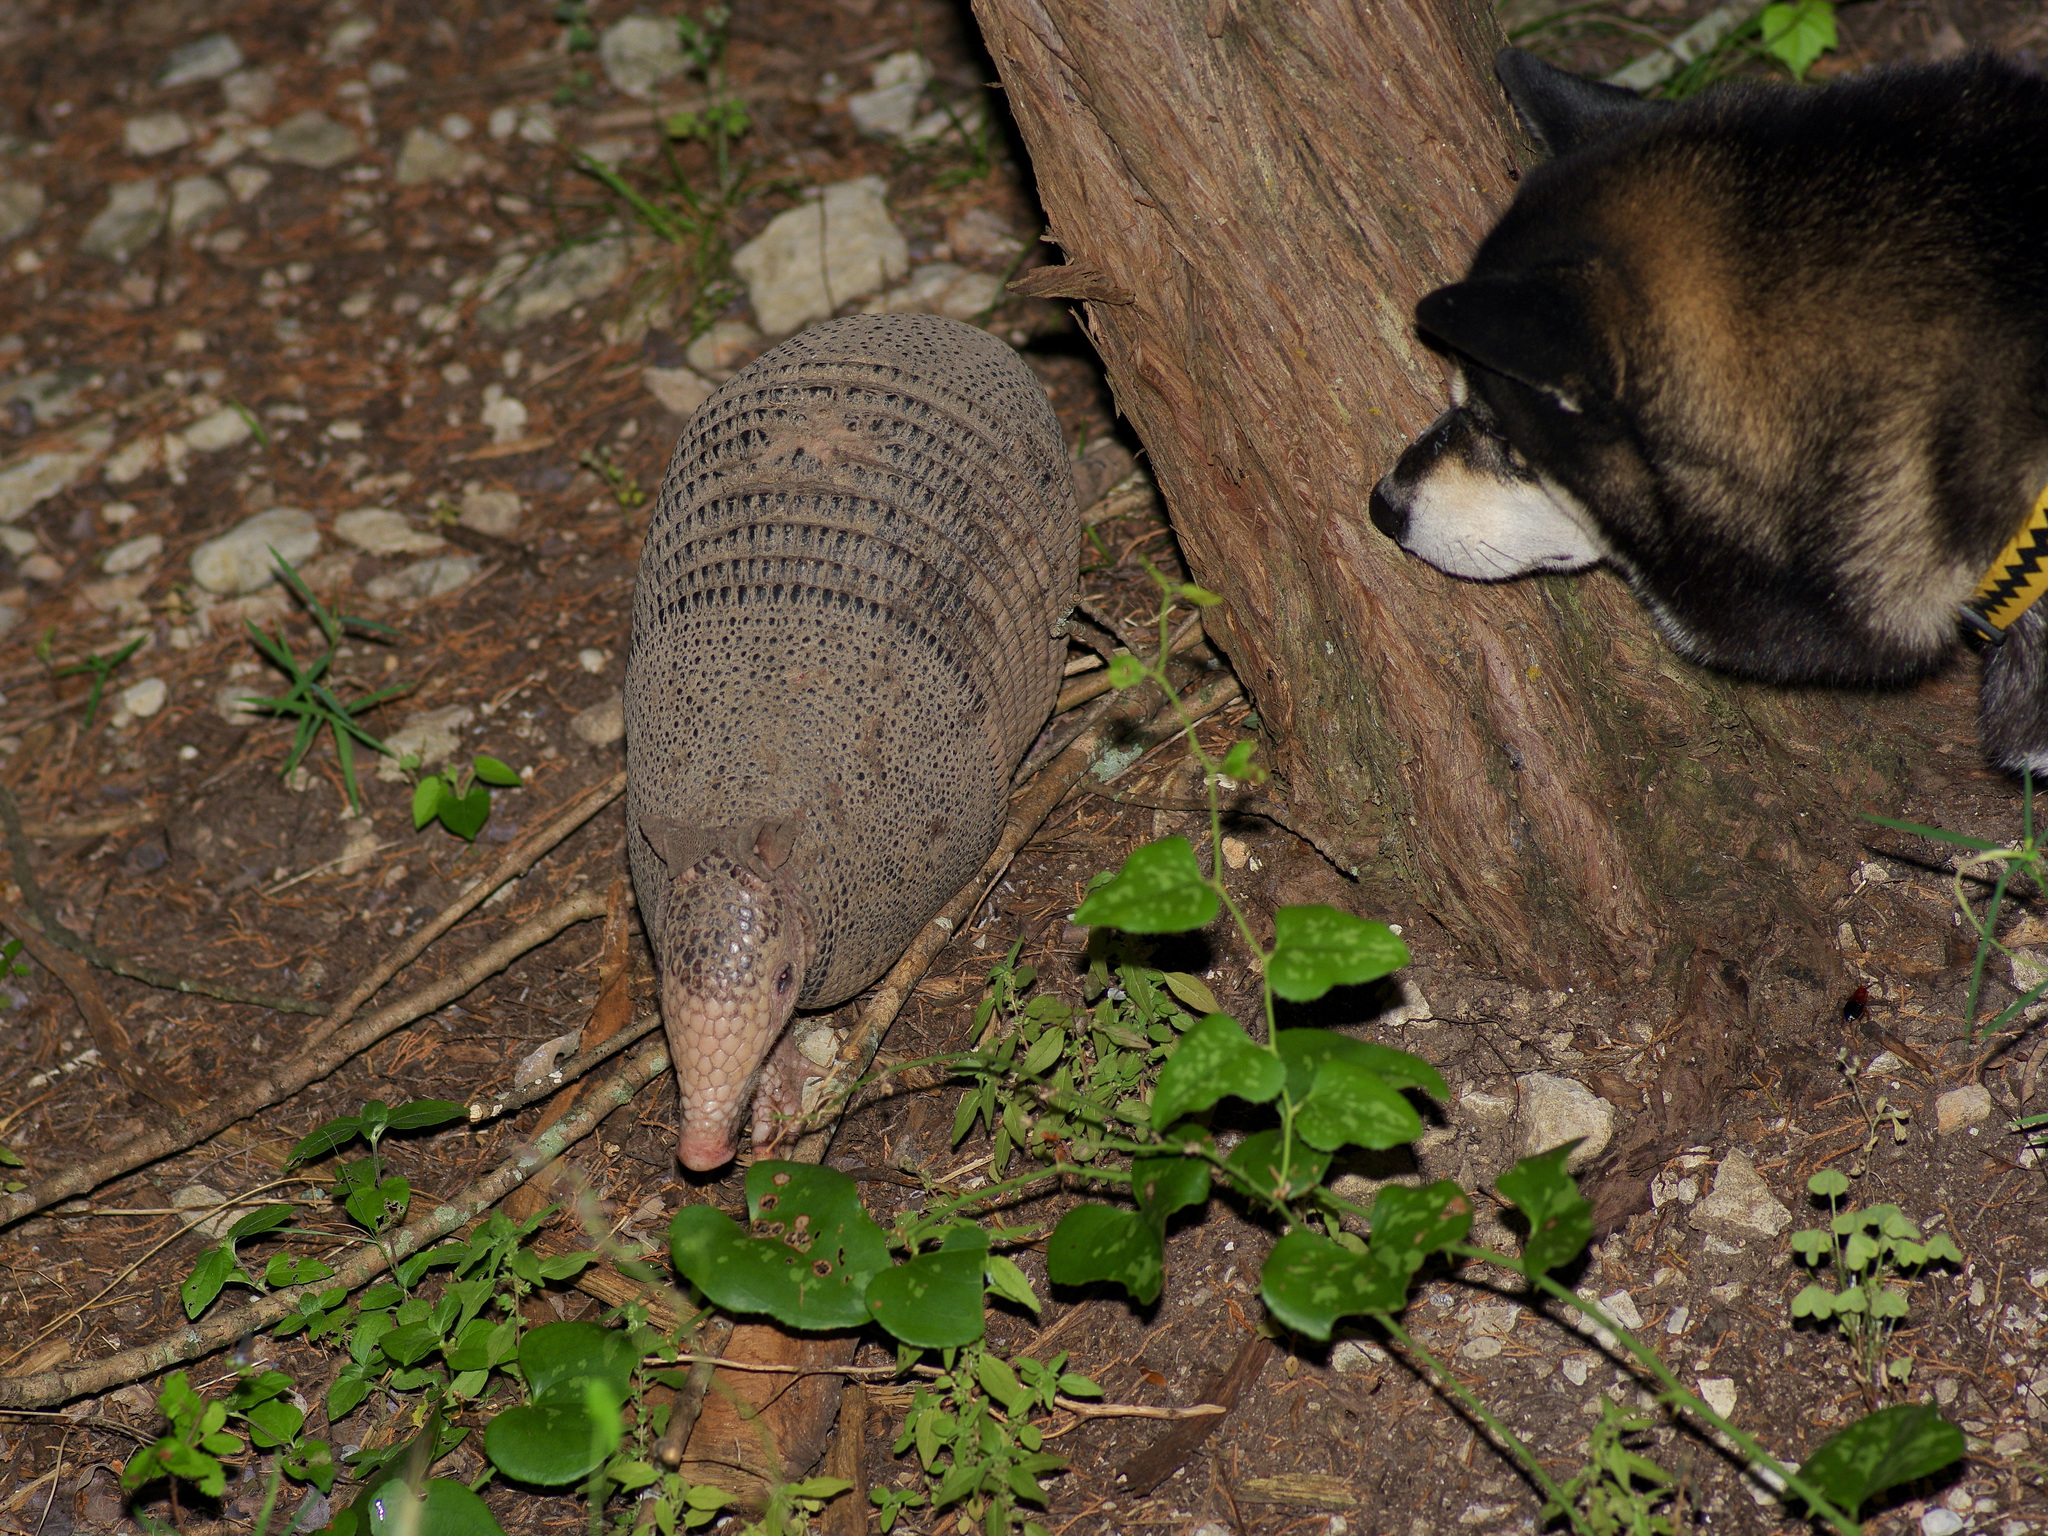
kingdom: Animalia
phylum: Chordata
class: Mammalia
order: Cingulata
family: Dasypodidae
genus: Dasypus
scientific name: Dasypus novemcinctus
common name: Nine-banded armadillo
